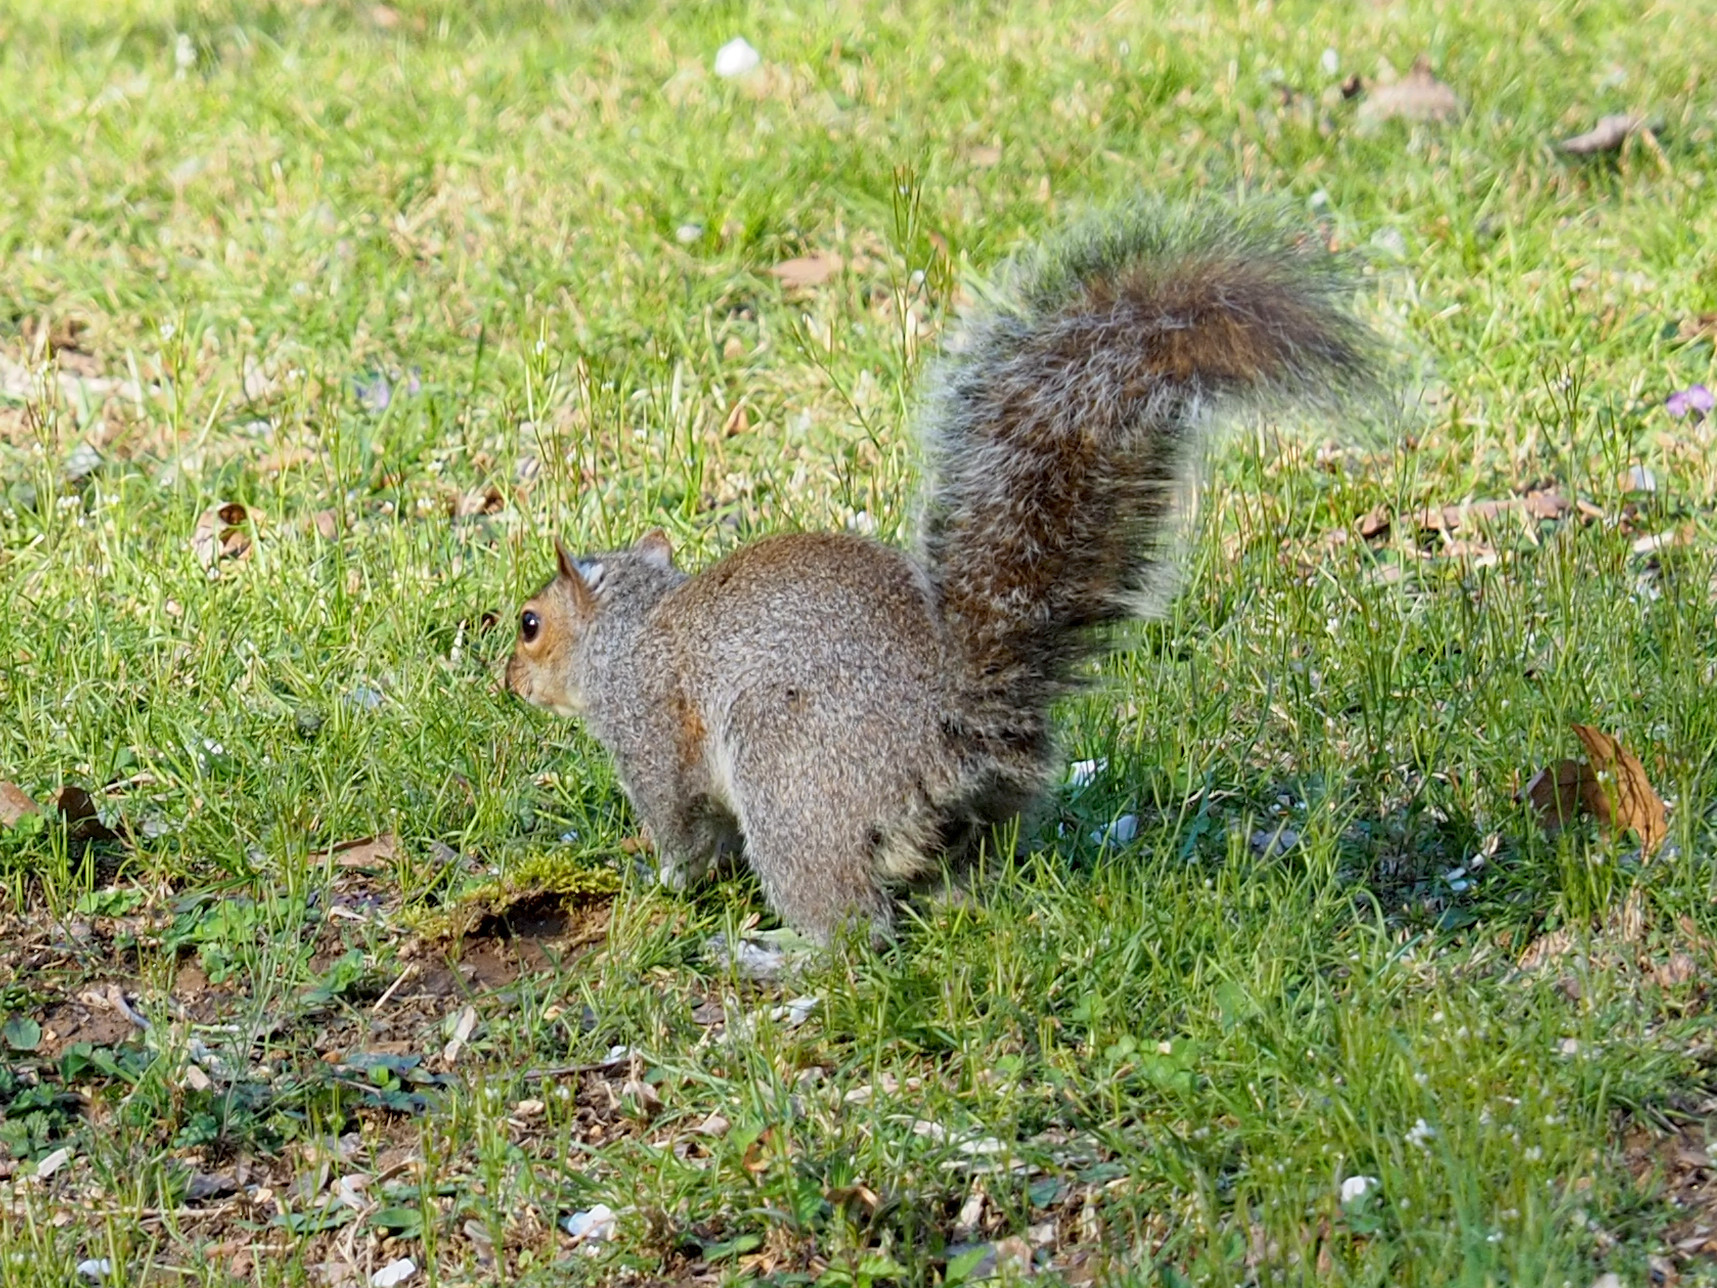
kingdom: Animalia
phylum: Chordata
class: Mammalia
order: Rodentia
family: Sciuridae
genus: Sciurus
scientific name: Sciurus carolinensis
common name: Eastern gray squirrel
